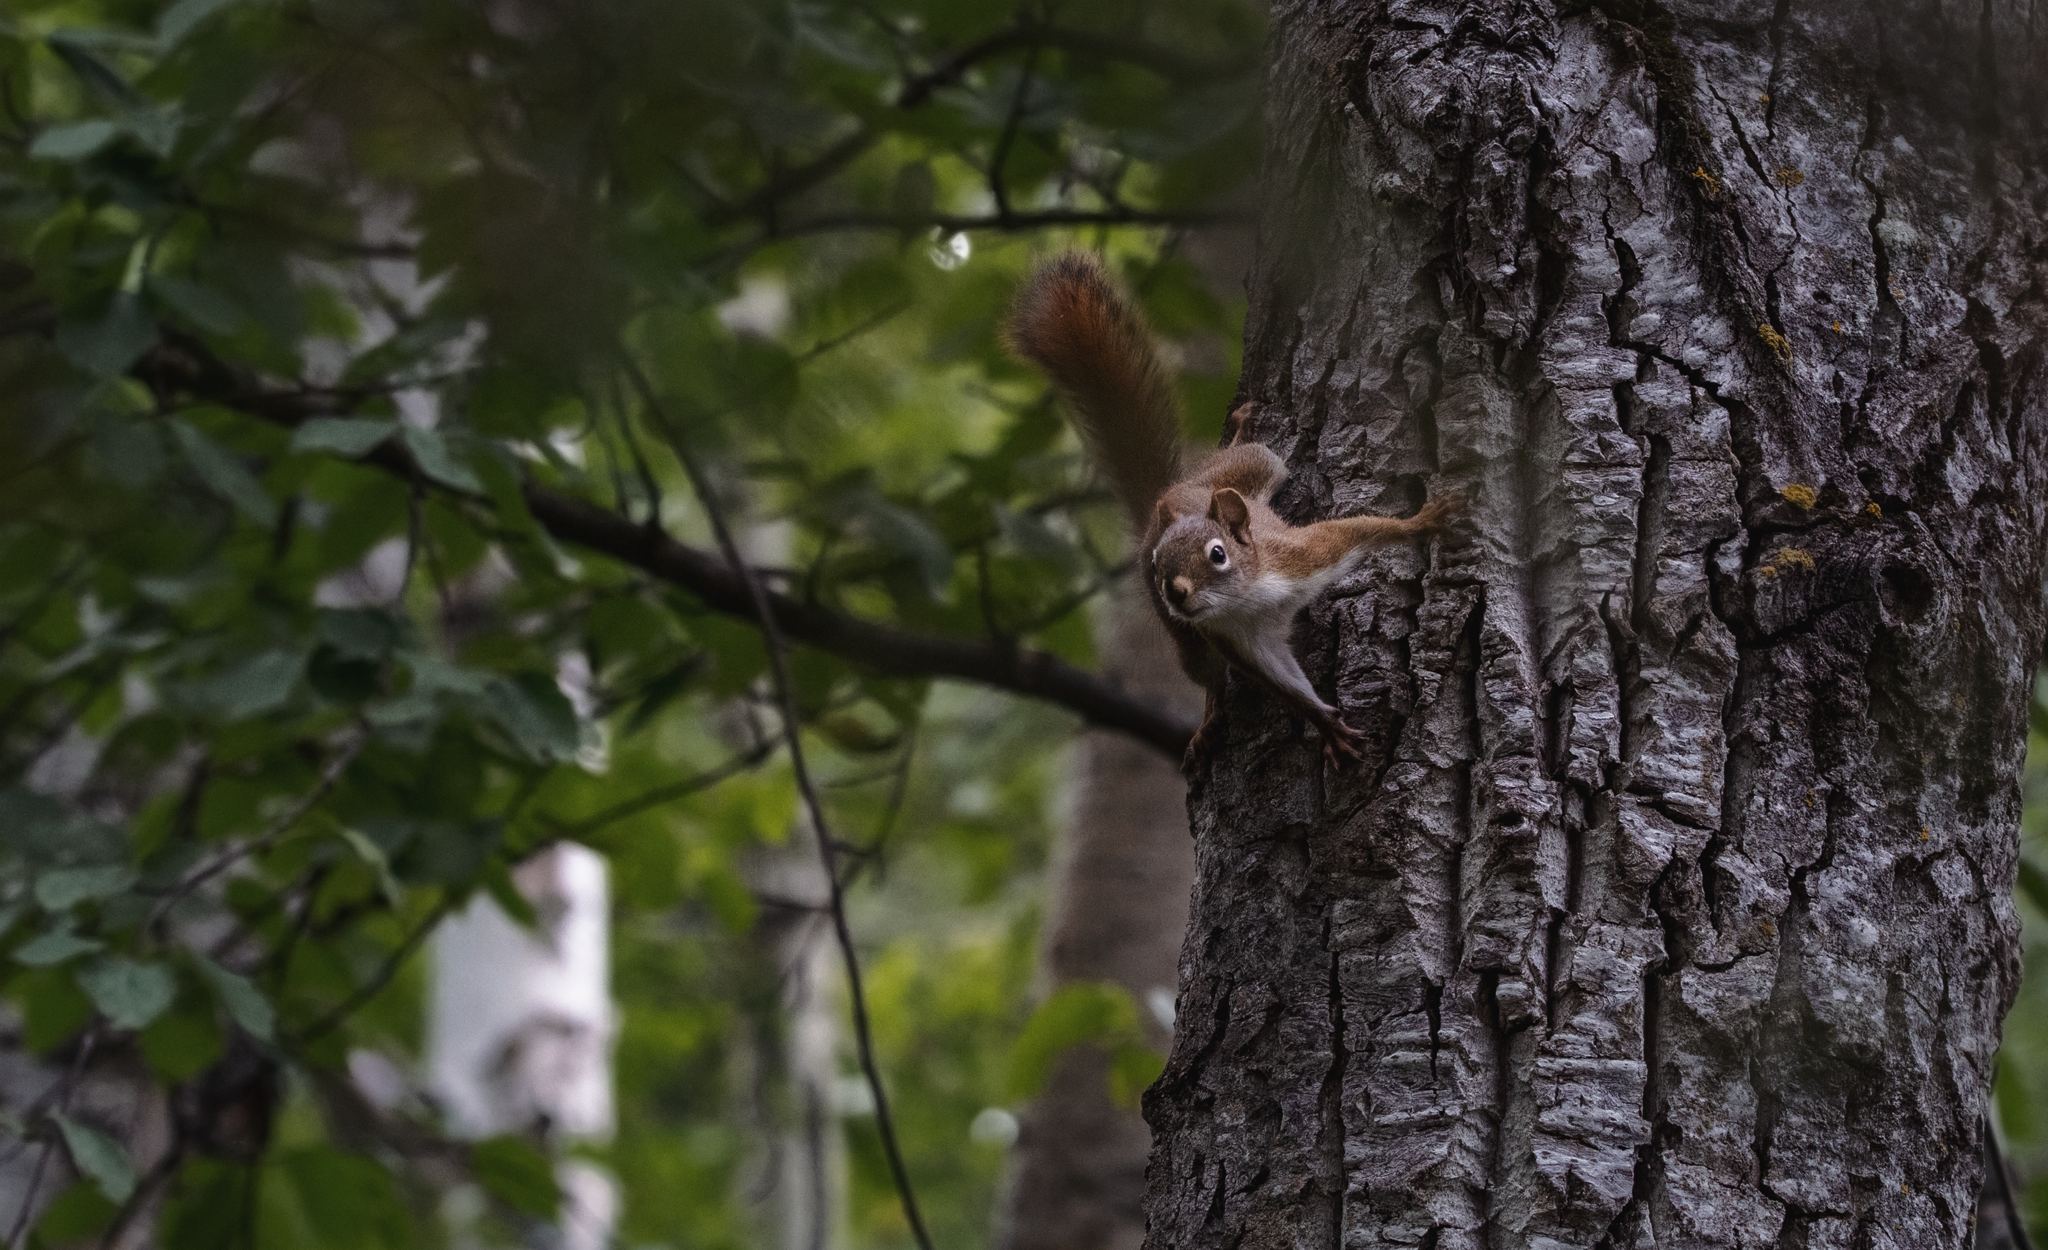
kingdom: Animalia
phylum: Chordata
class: Mammalia
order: Rodentia
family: Sciuridae
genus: Tamiasciurus
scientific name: Tamiasciurus hudsonicus
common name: Red squirrel
